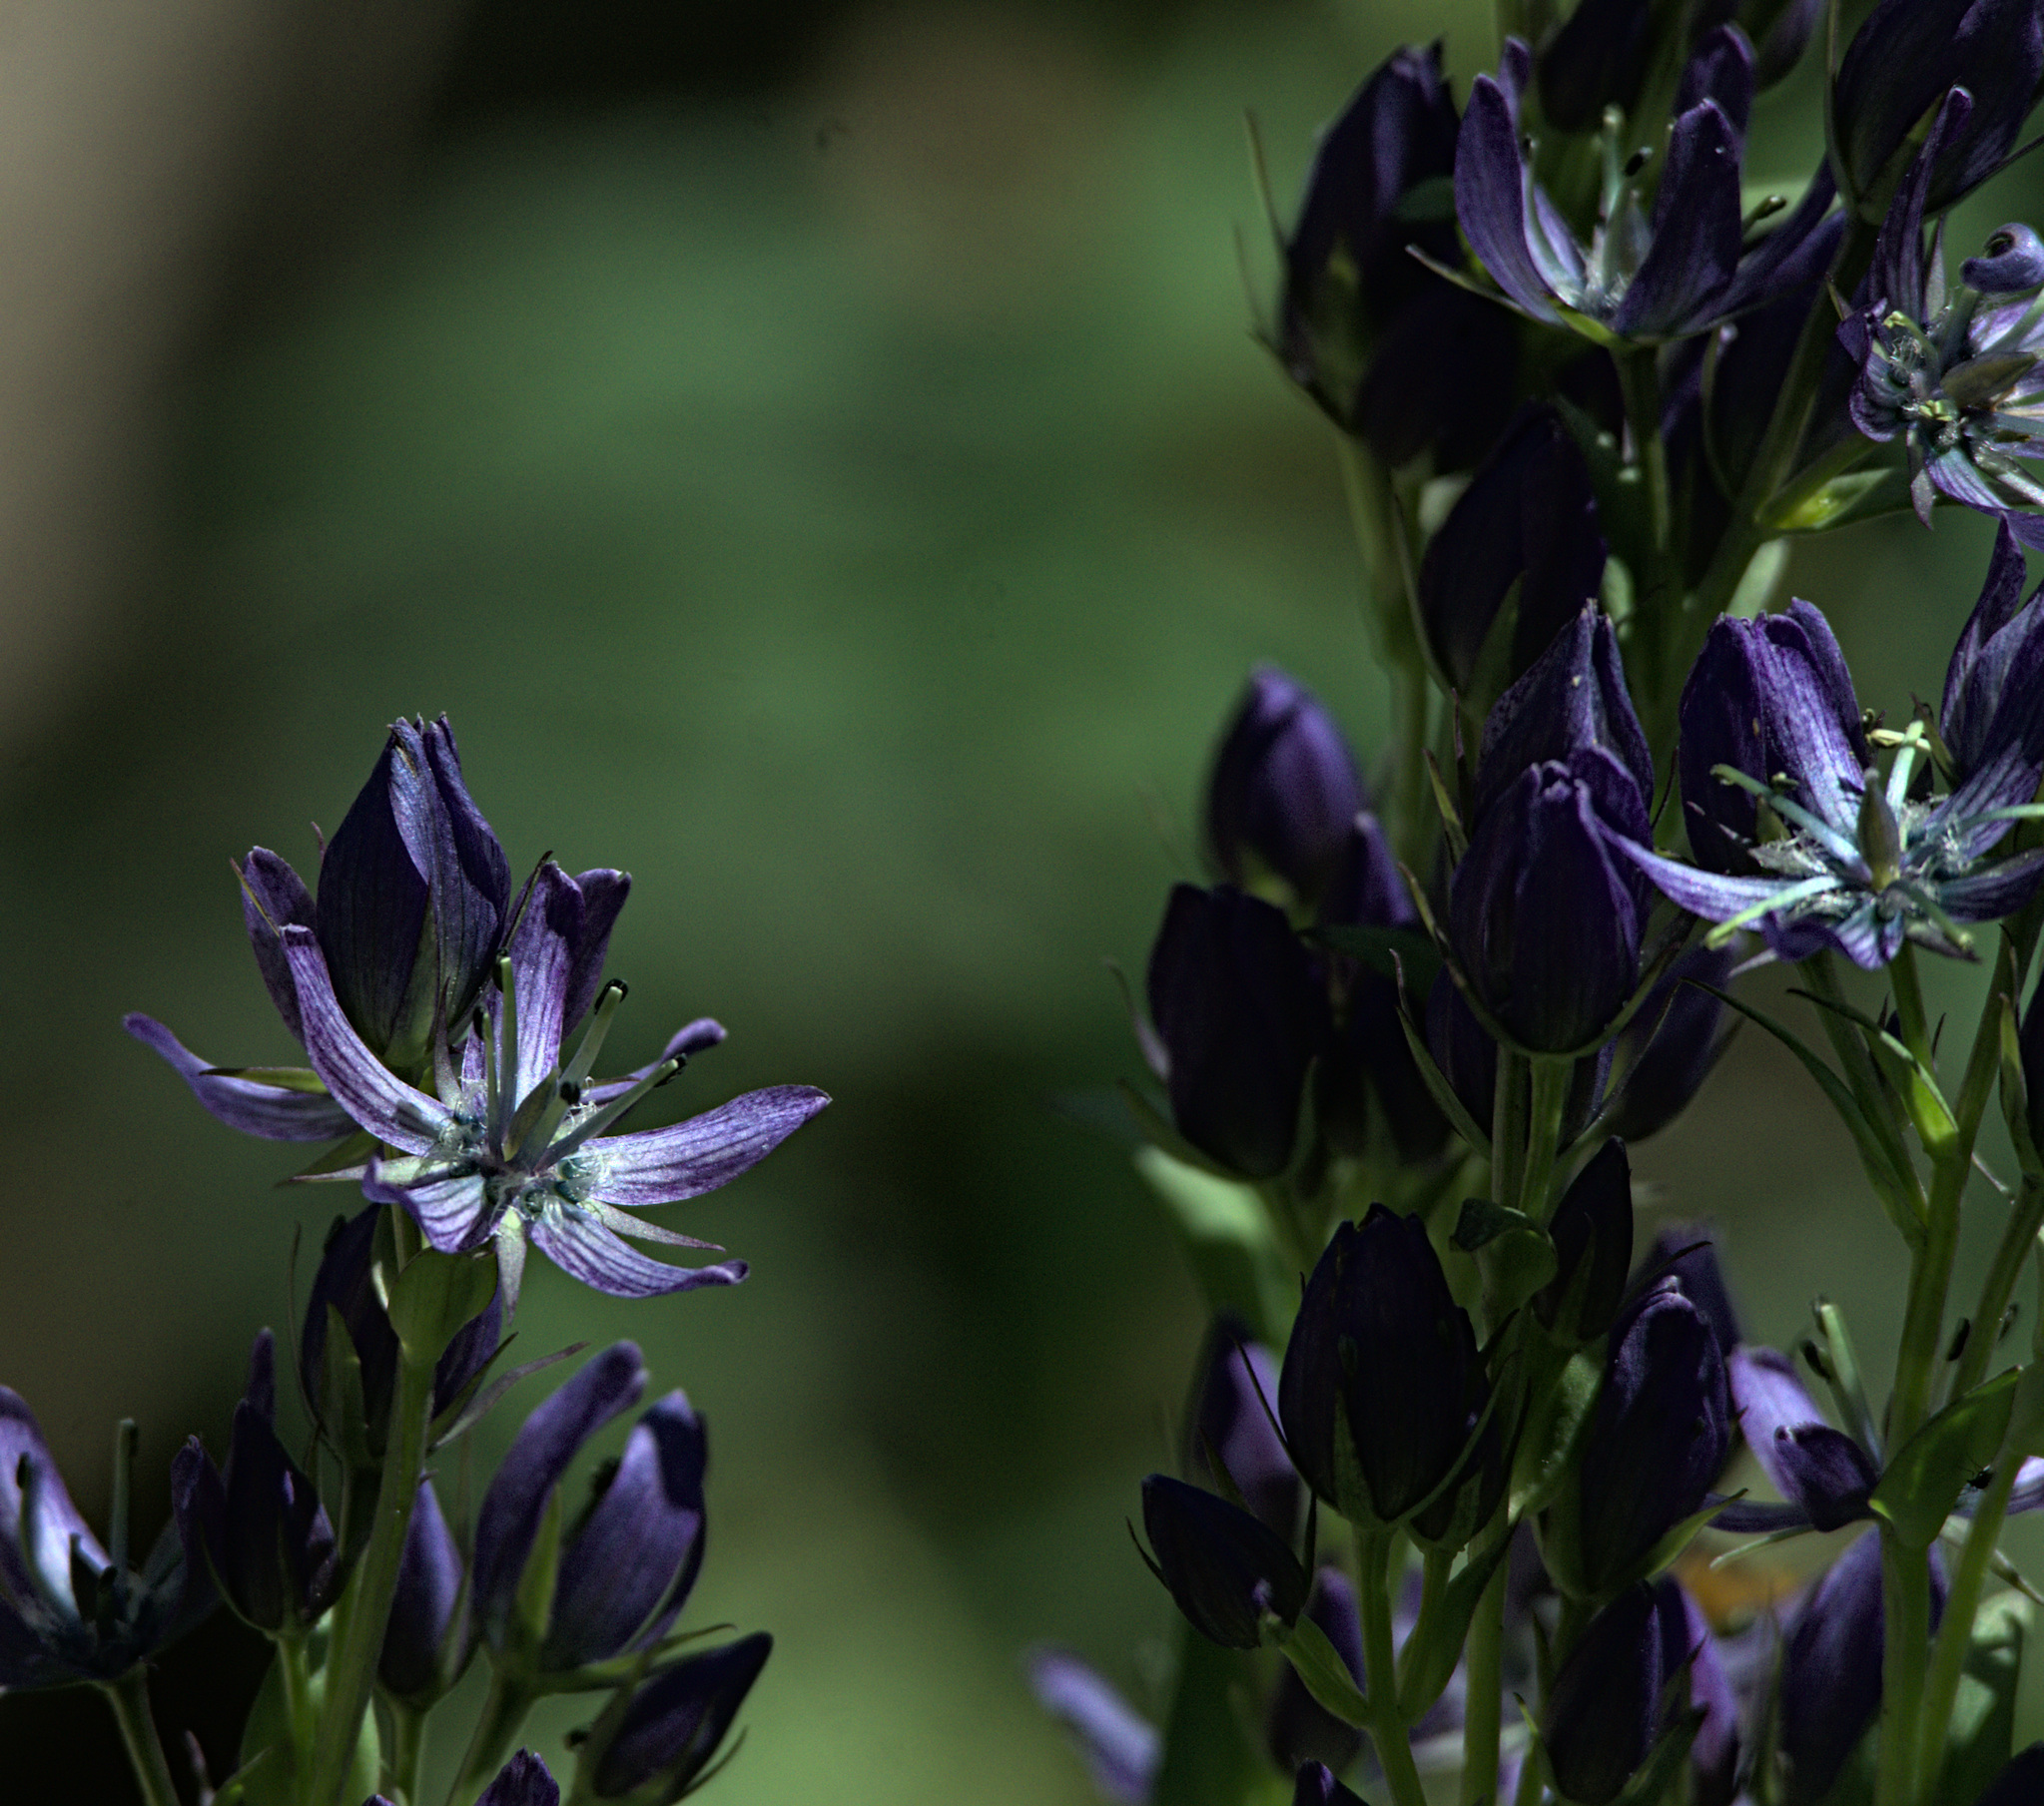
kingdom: Plantae
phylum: Tracheophyta
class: Magnoliopsida
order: Gentianales
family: Gentianaceae
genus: Swertia
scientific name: Swertia obtusa
